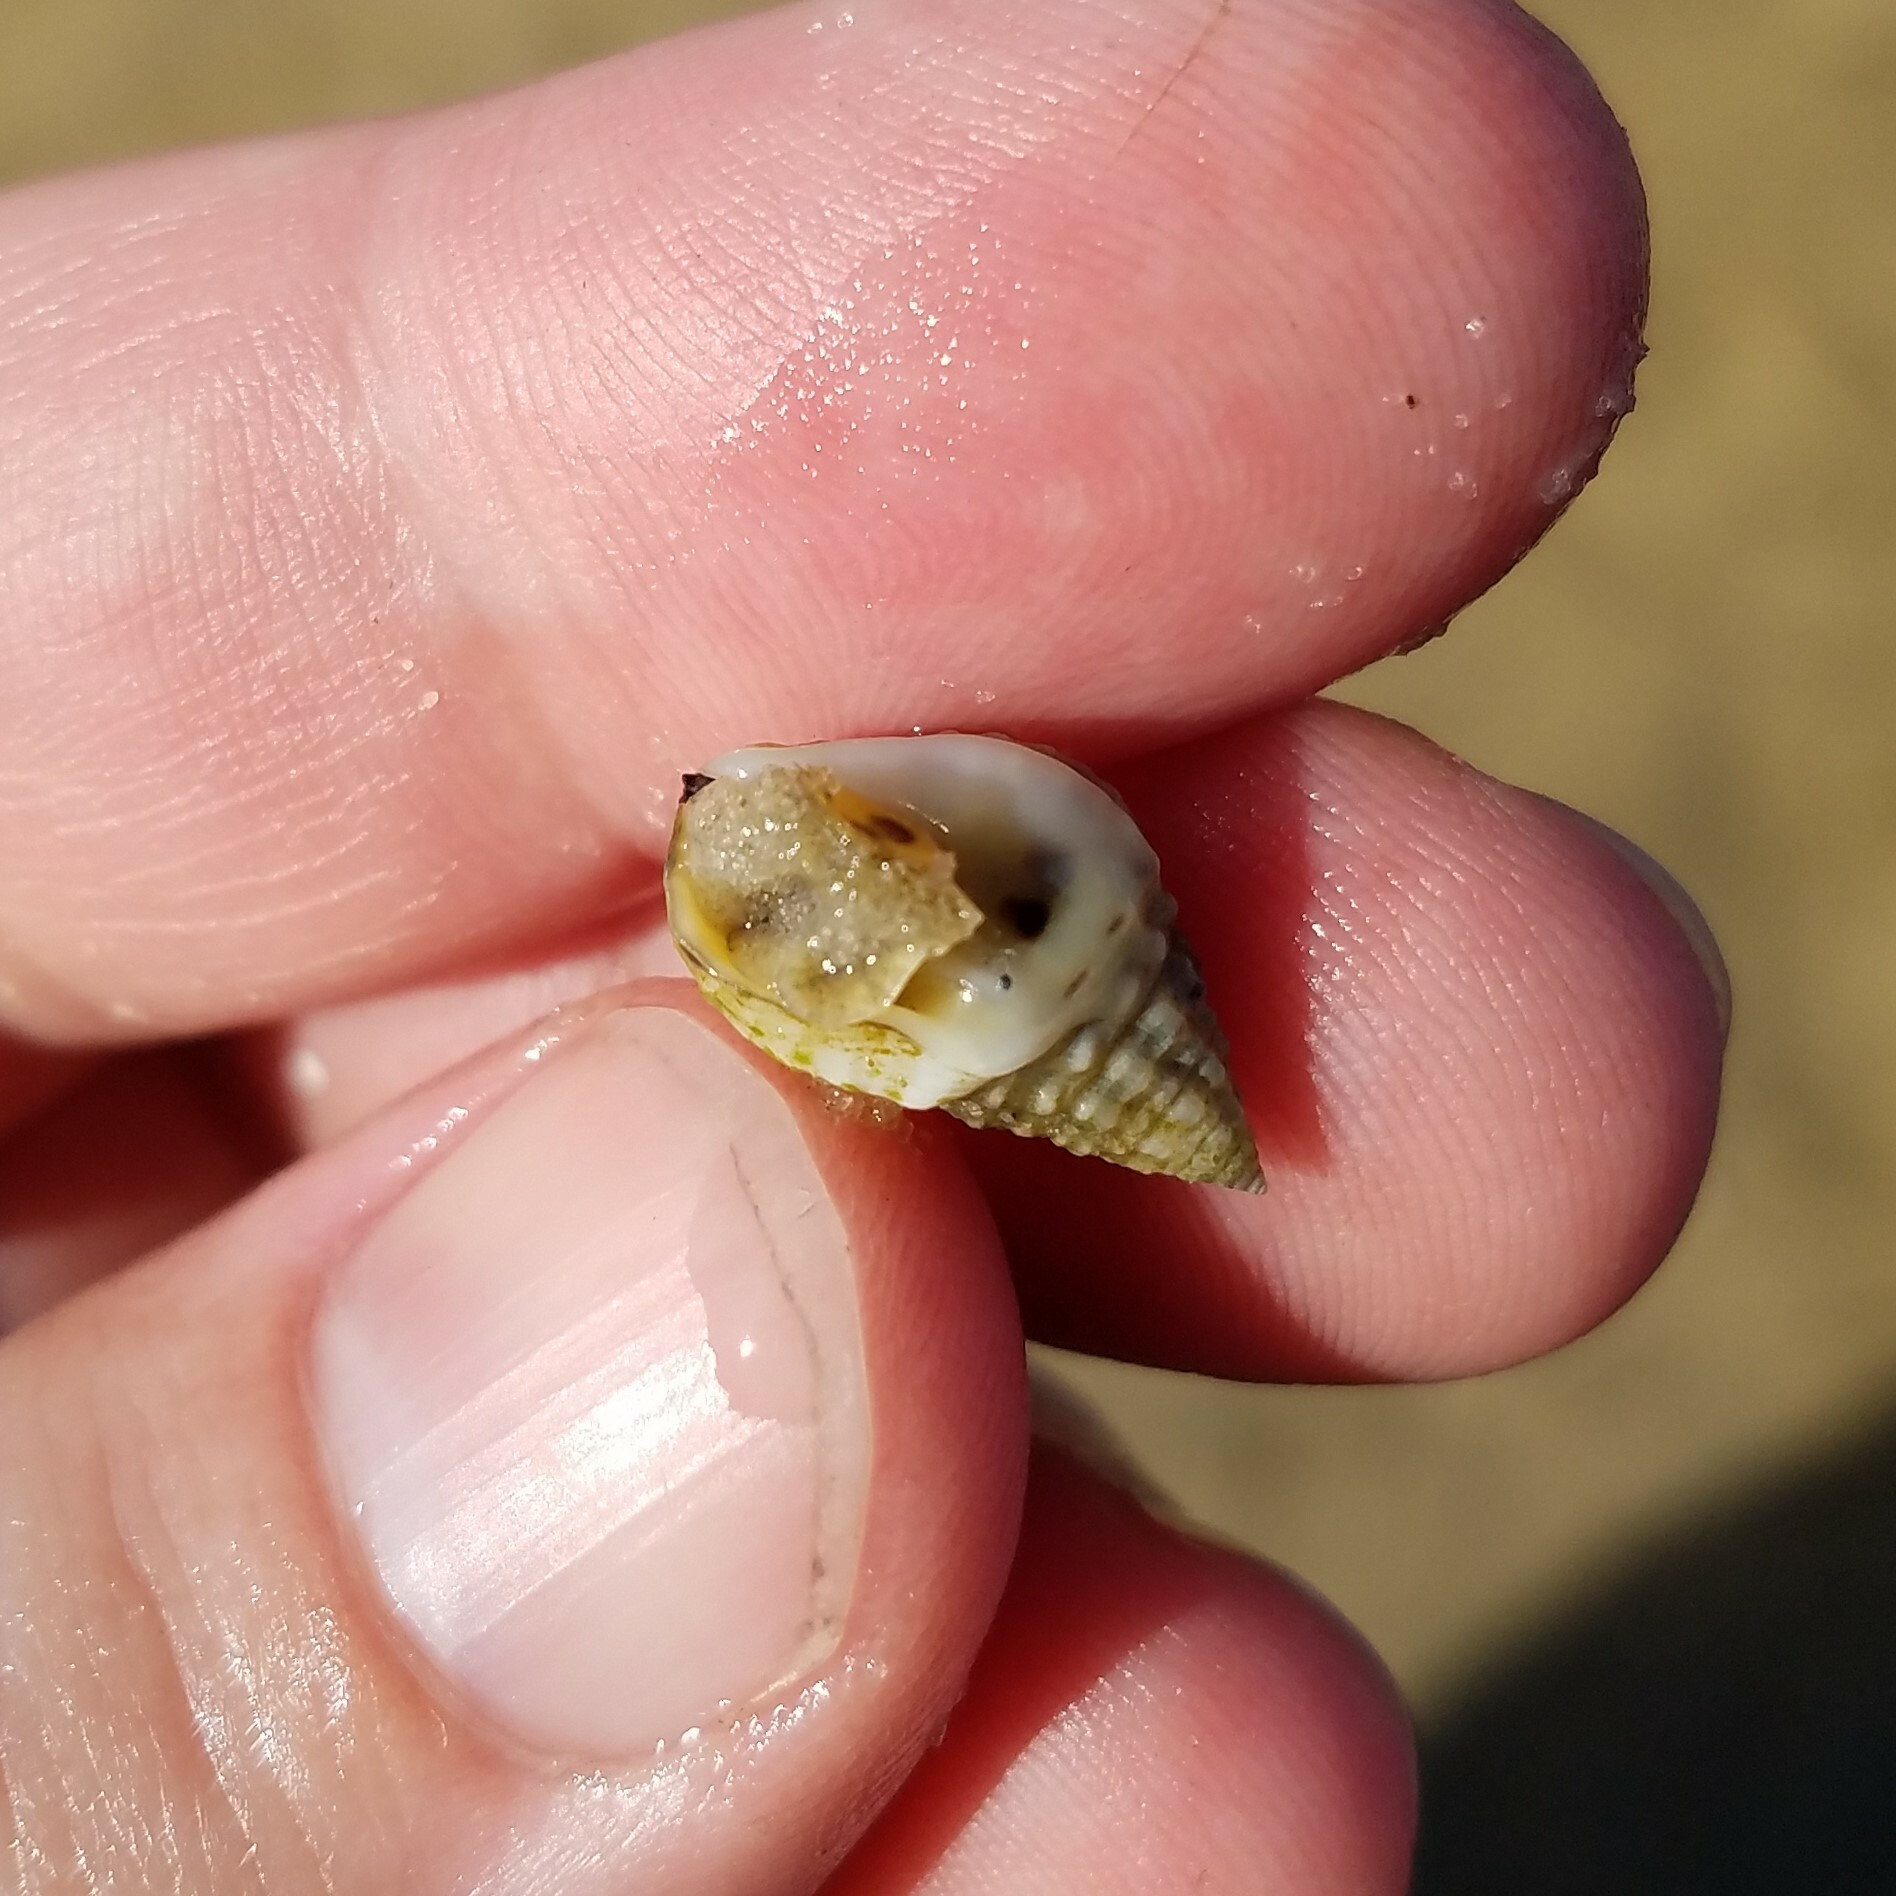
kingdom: Animalia
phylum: Mollusca
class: Gastropoda
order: Neogastropoda
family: Nassariidae
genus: Phrontis
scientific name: Phrontis vibex
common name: Bruised nassa
